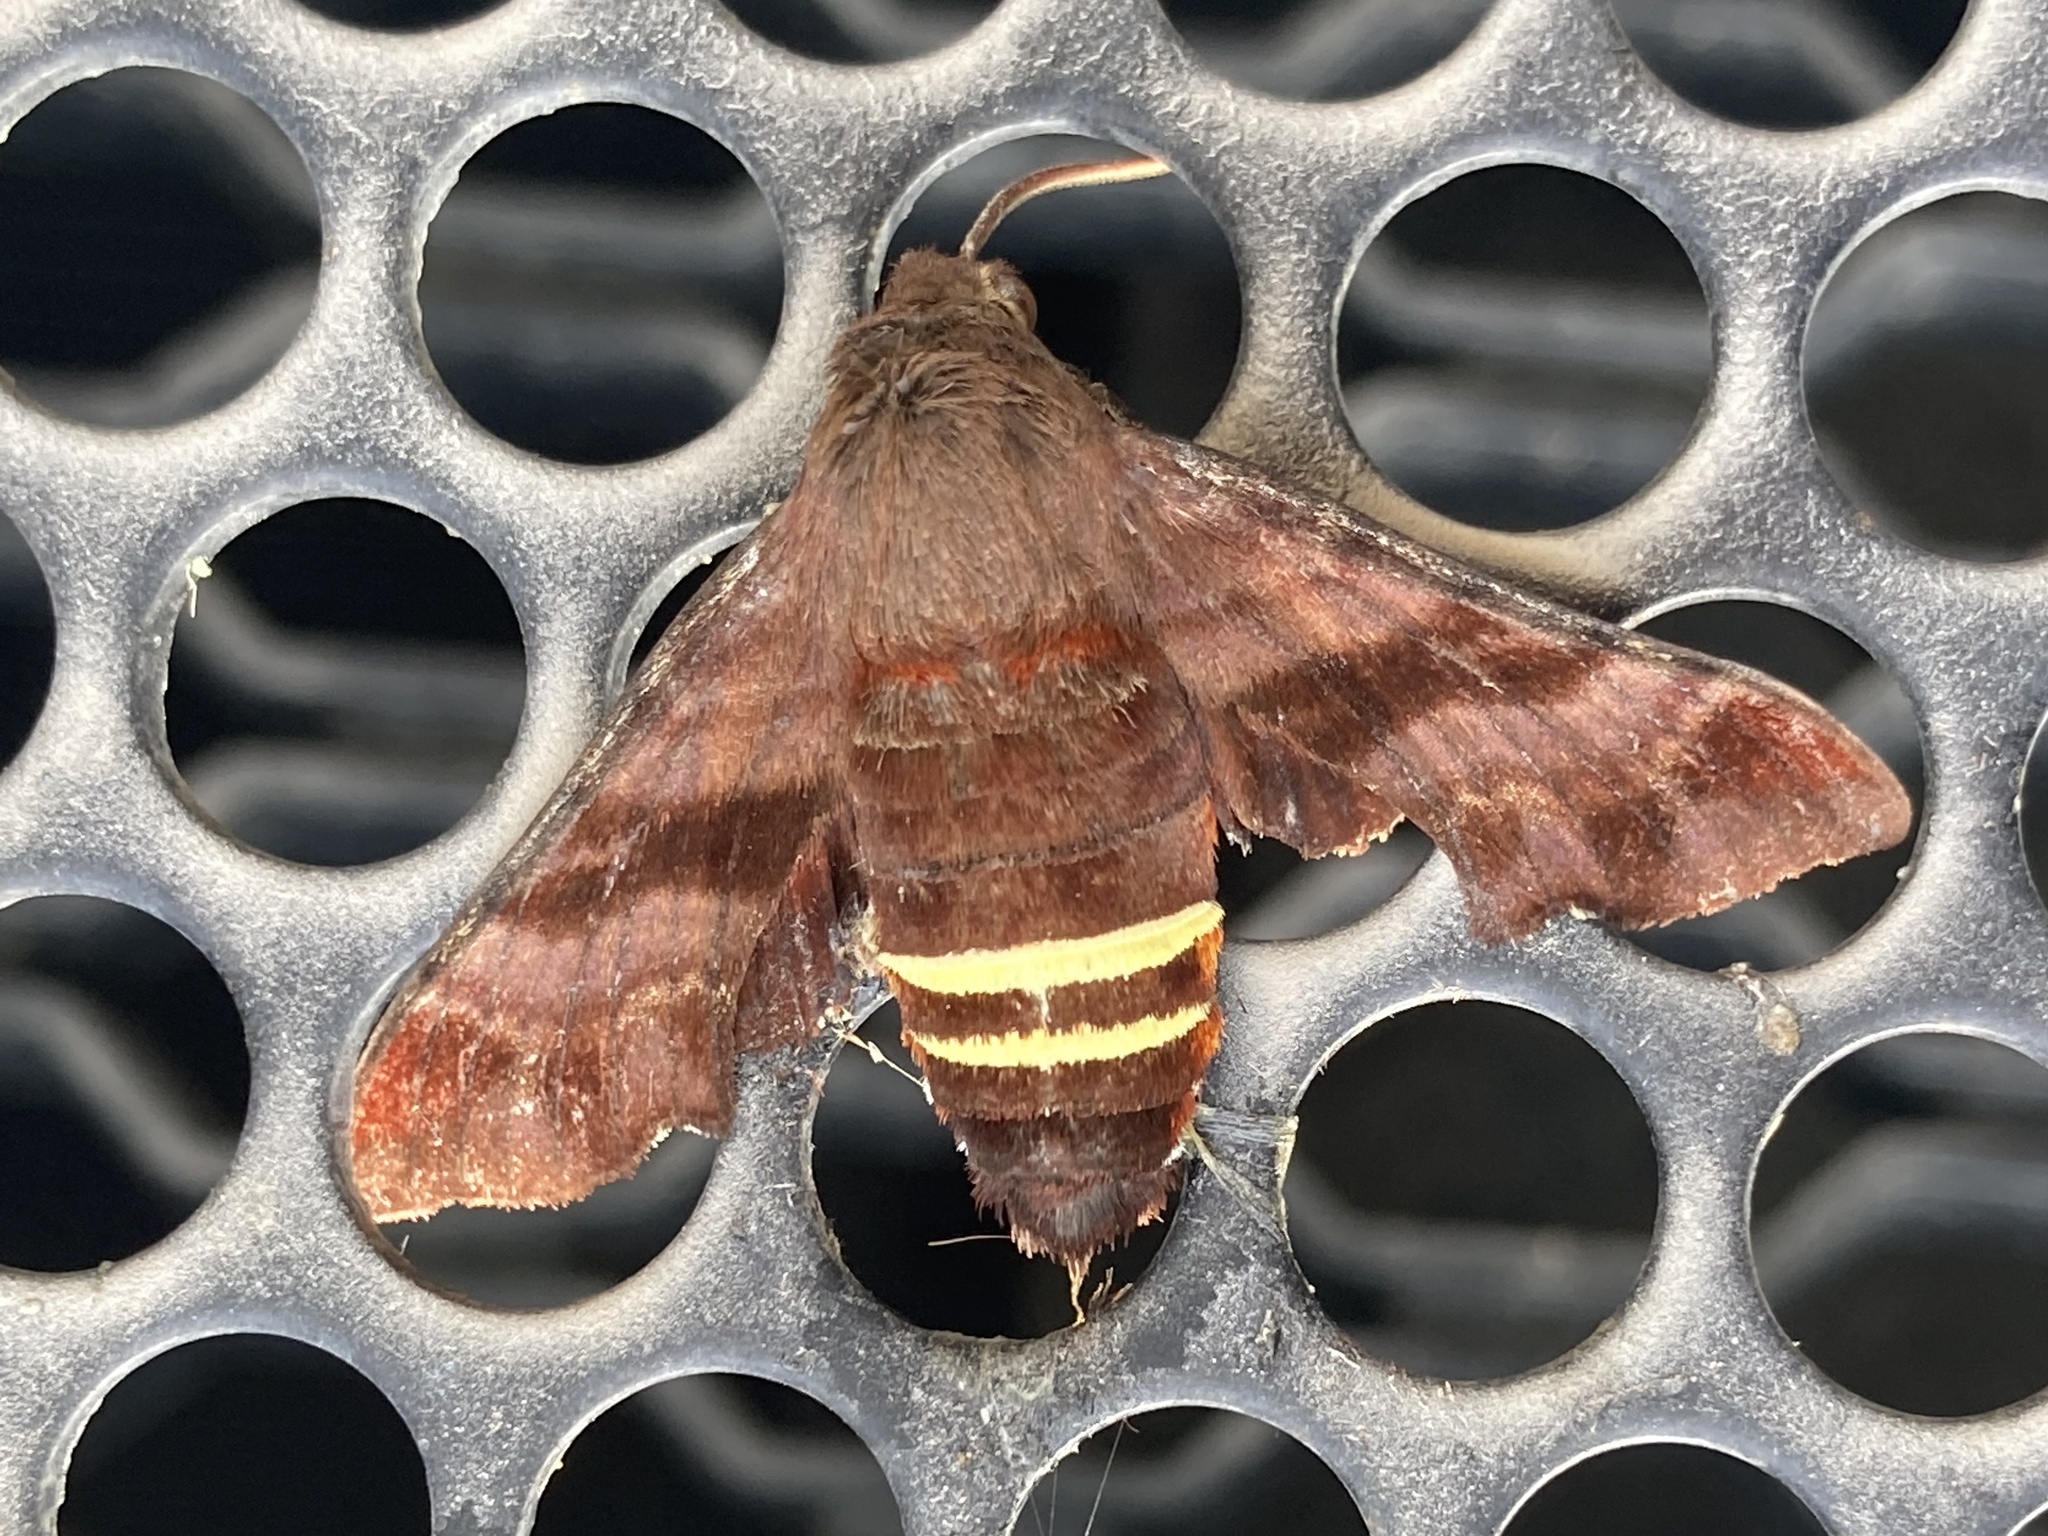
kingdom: Animalia
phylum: Arthropoda
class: Insecta
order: Lepidoptera
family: Sphingidae
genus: Amphion
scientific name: Amphion floridensis
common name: Nessus sphinx
